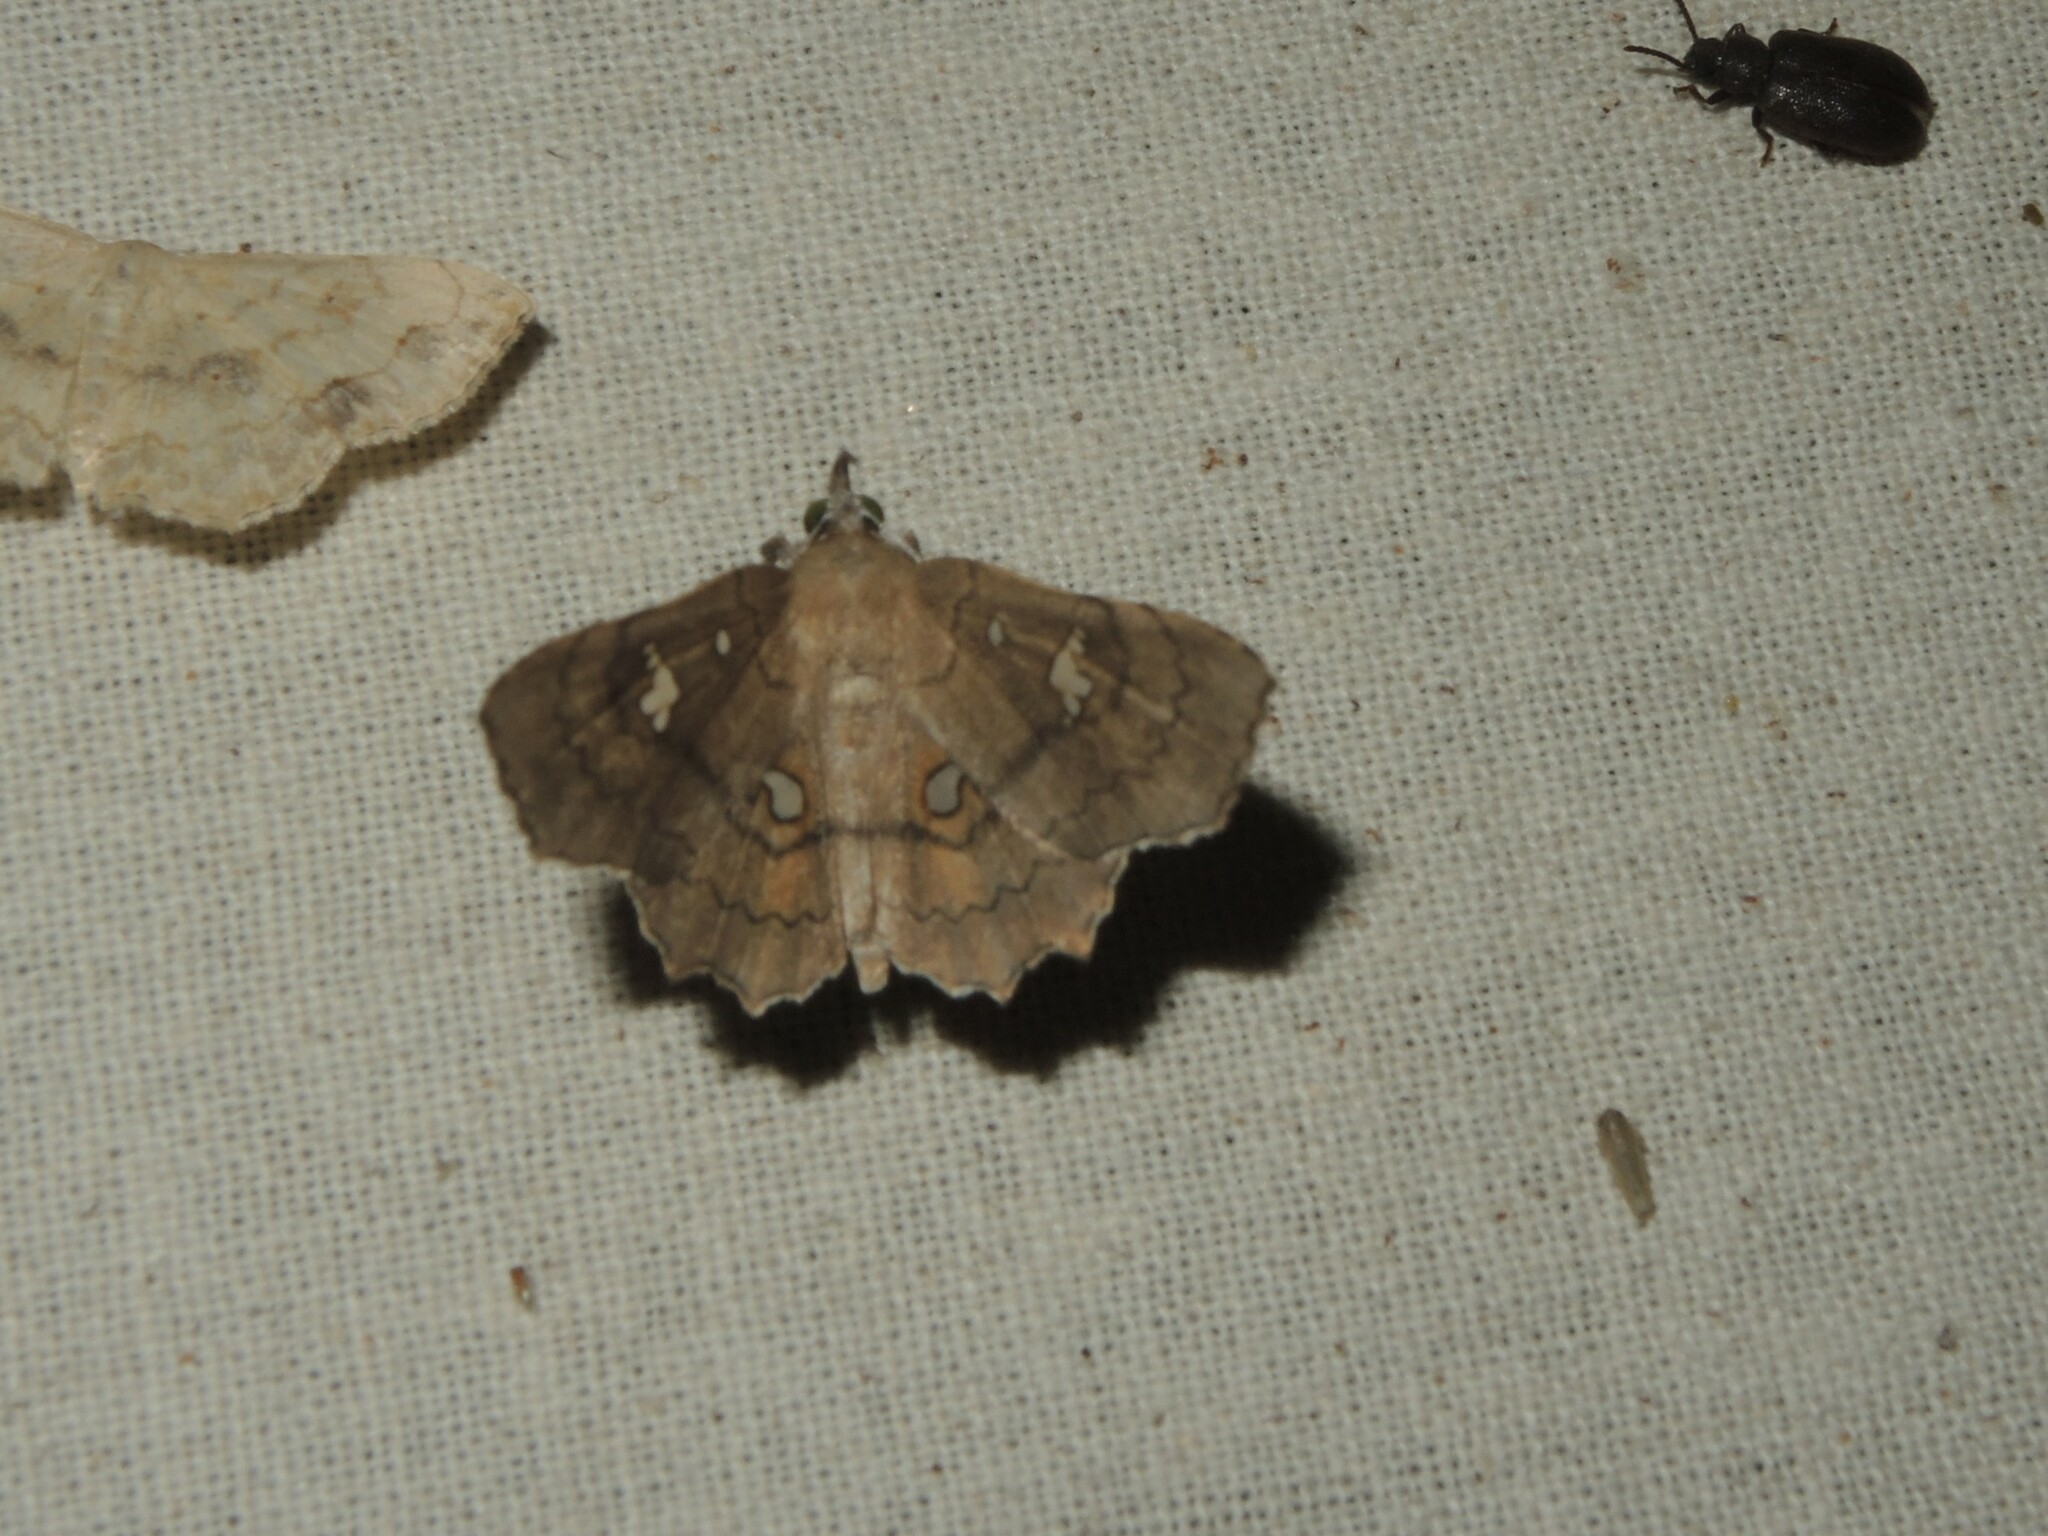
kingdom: Animalia
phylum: Arthropoda
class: Insecta
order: Lepidoptera
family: Erebidae
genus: Egnasia
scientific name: Egnasia ephyrodalis
